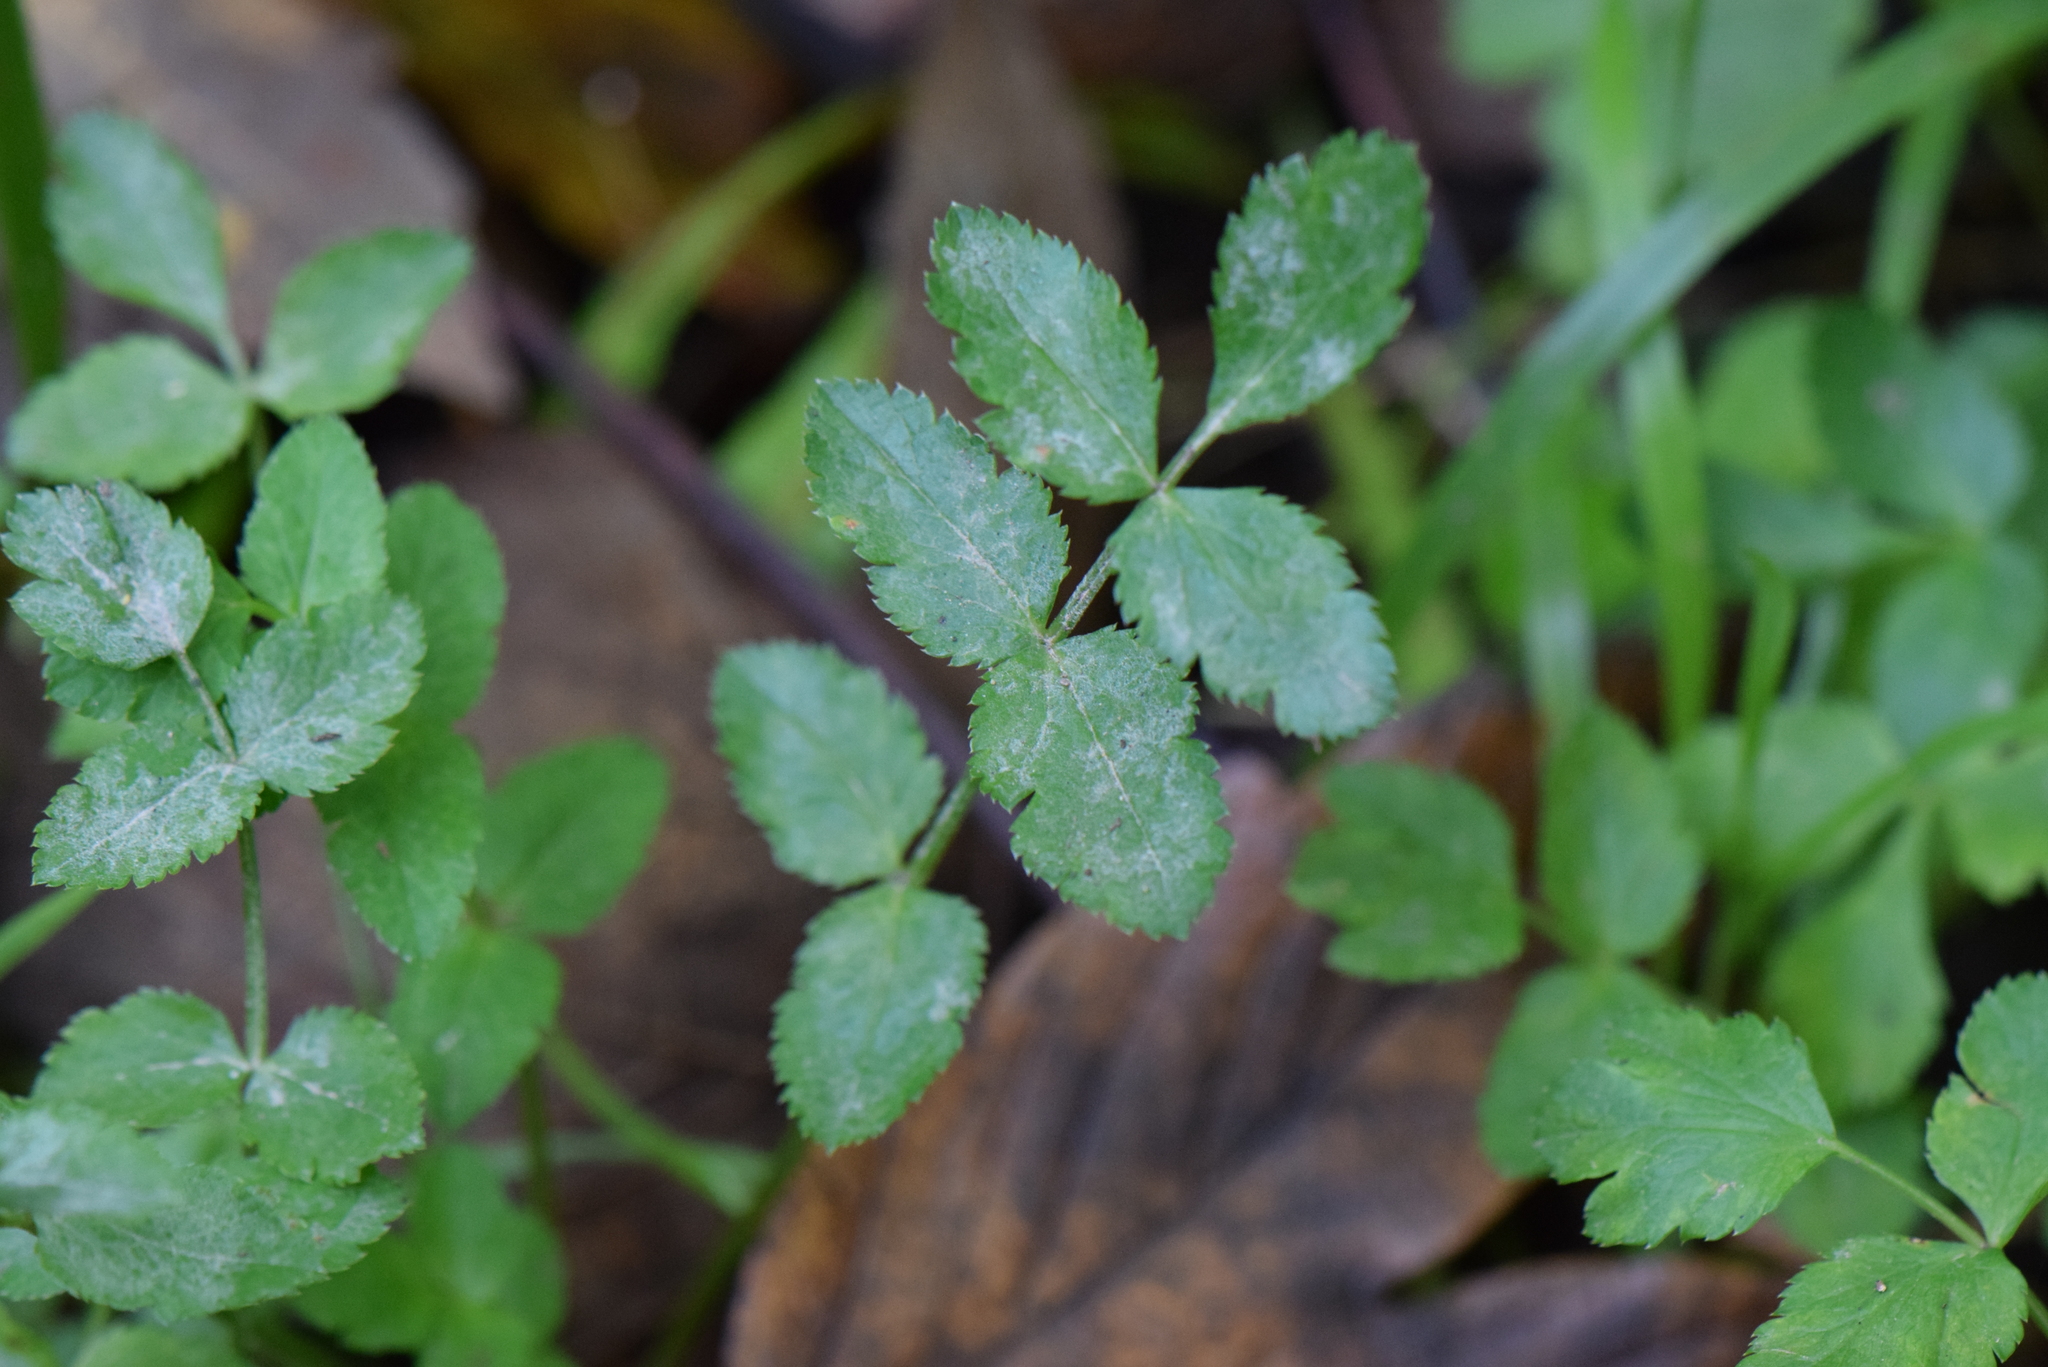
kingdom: Plantae
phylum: Tracheophyta
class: Magnoliopsida
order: Apiales
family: Apiaceae
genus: Sison
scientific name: Sison amomum
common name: Stone-parsley
